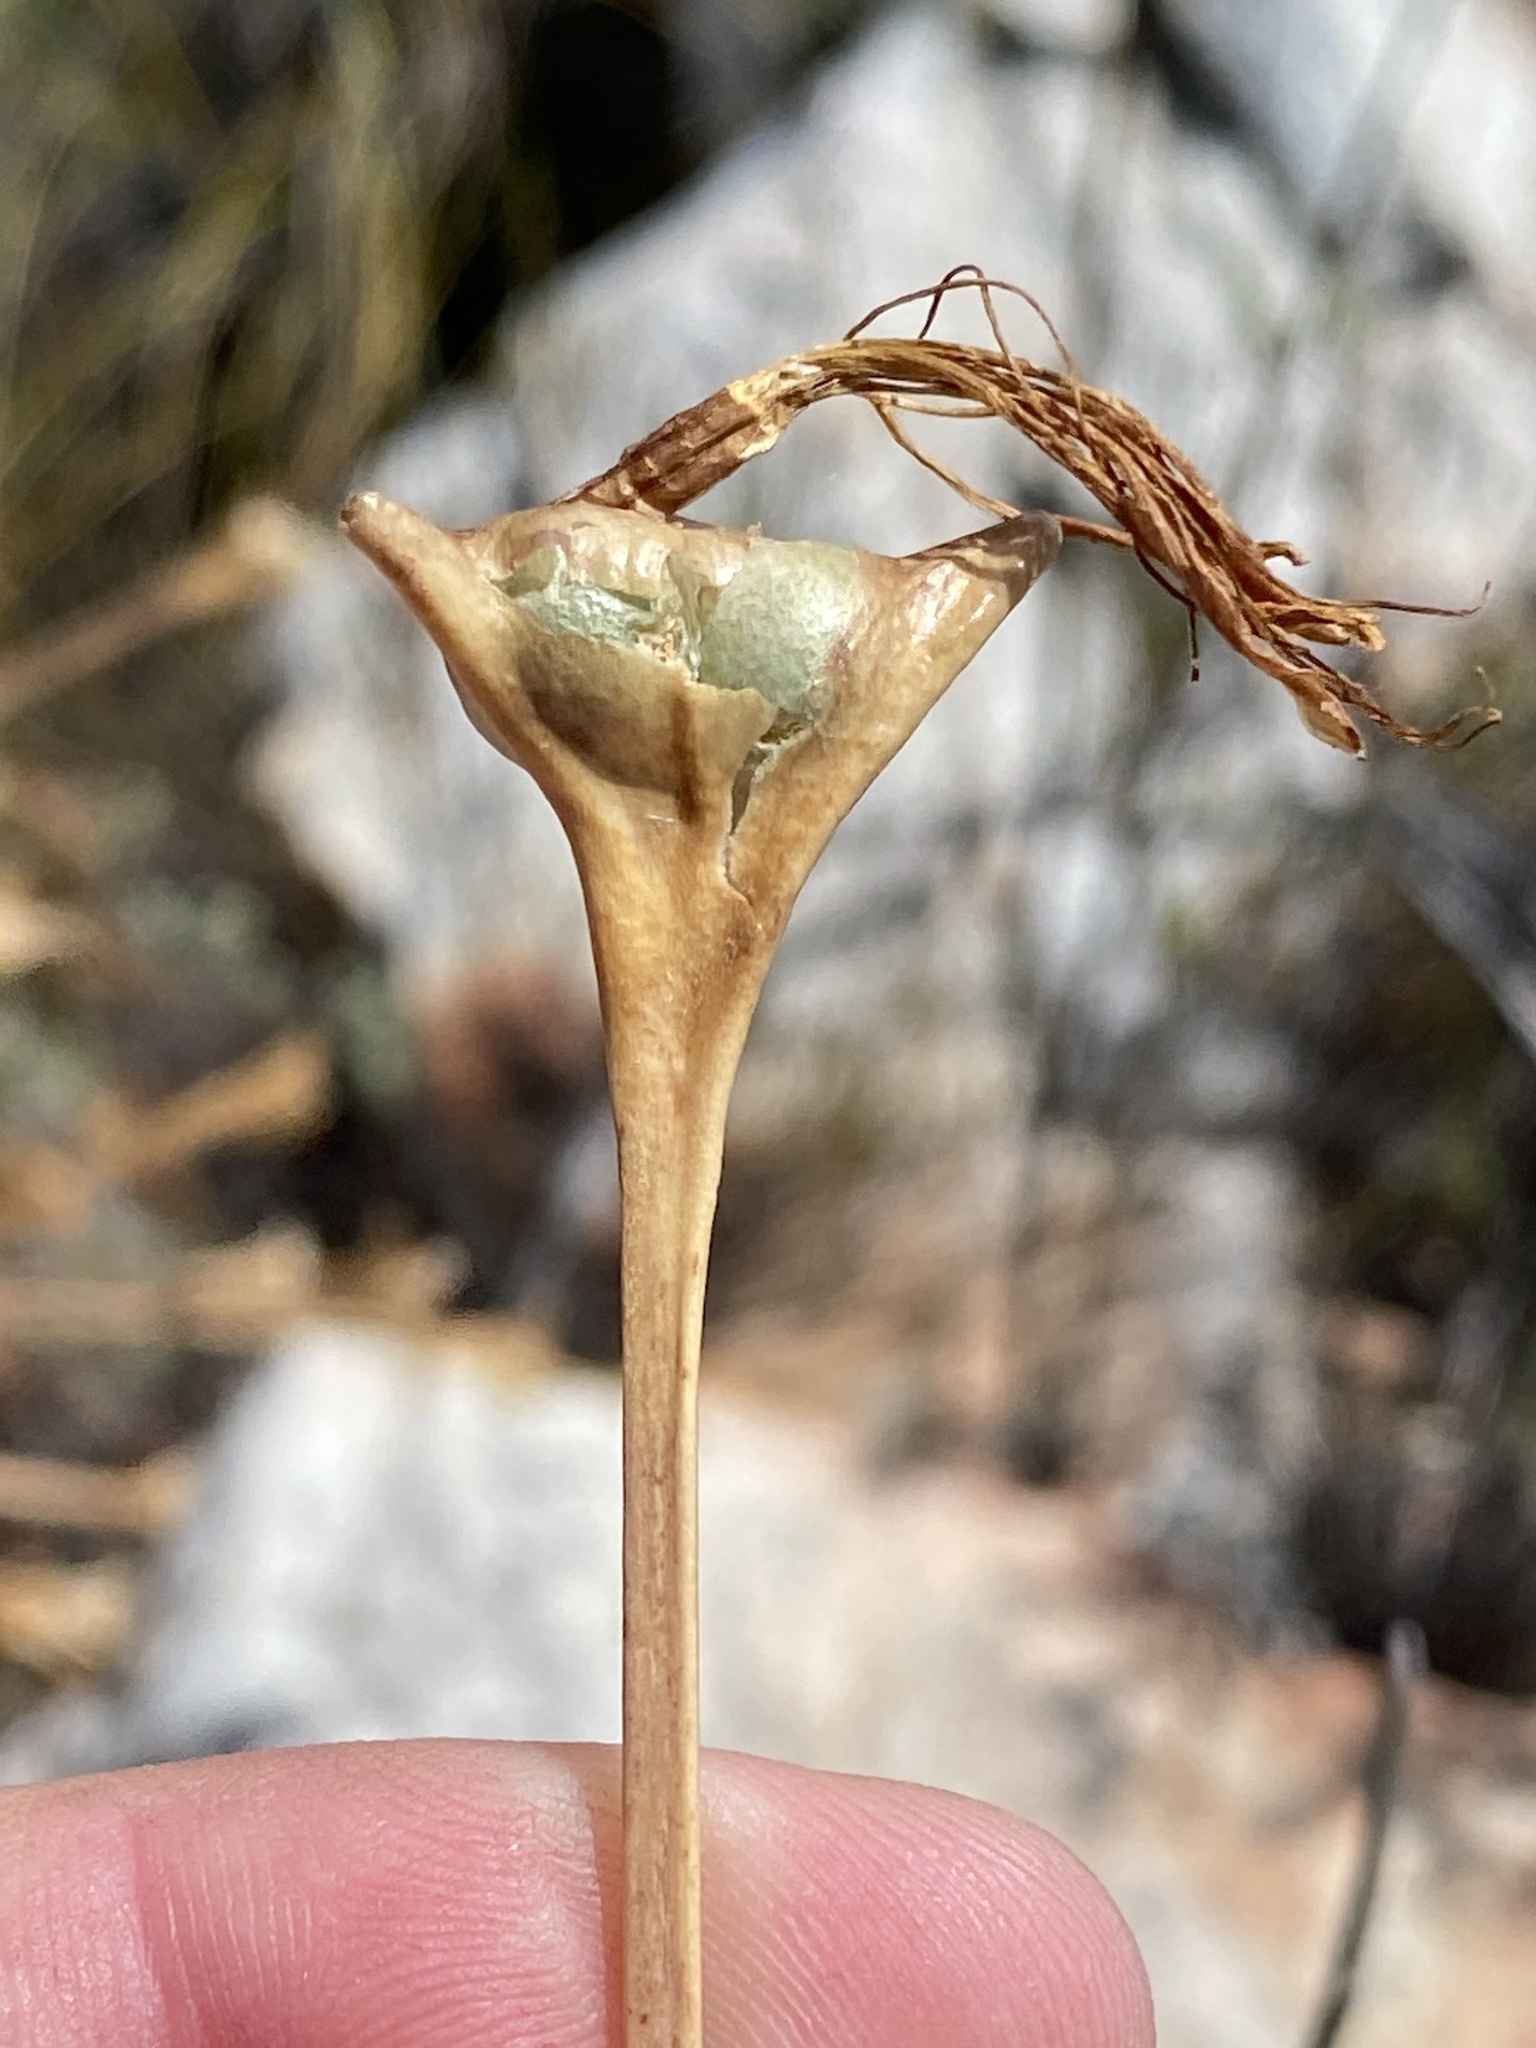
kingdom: Plantae
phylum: Tracheophyta
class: Liliopsida
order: Asparagales
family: Amaryllidaceae
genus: Boophone
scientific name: Boophone disticha
